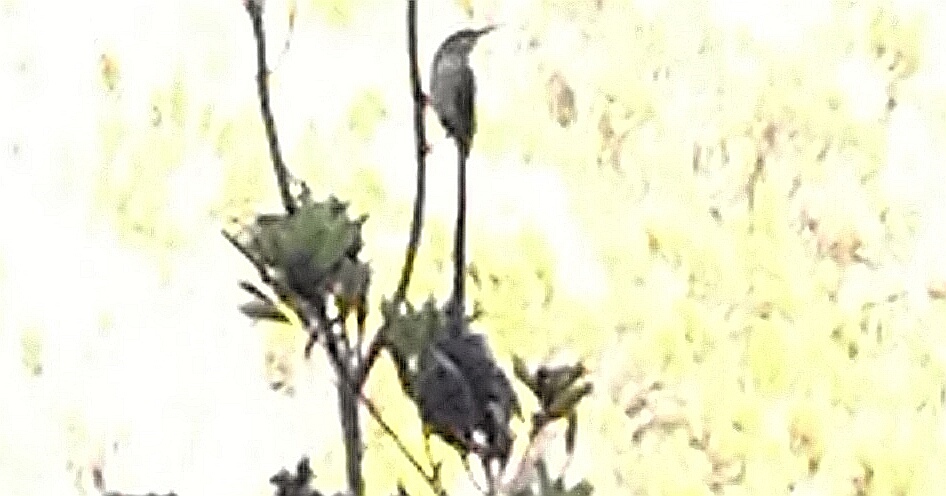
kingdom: Animalia
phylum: Chordata
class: Aves
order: Passeriformes
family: Promeropidae
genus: Promerops
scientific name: Promerops cafer
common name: Cape sugarbird
